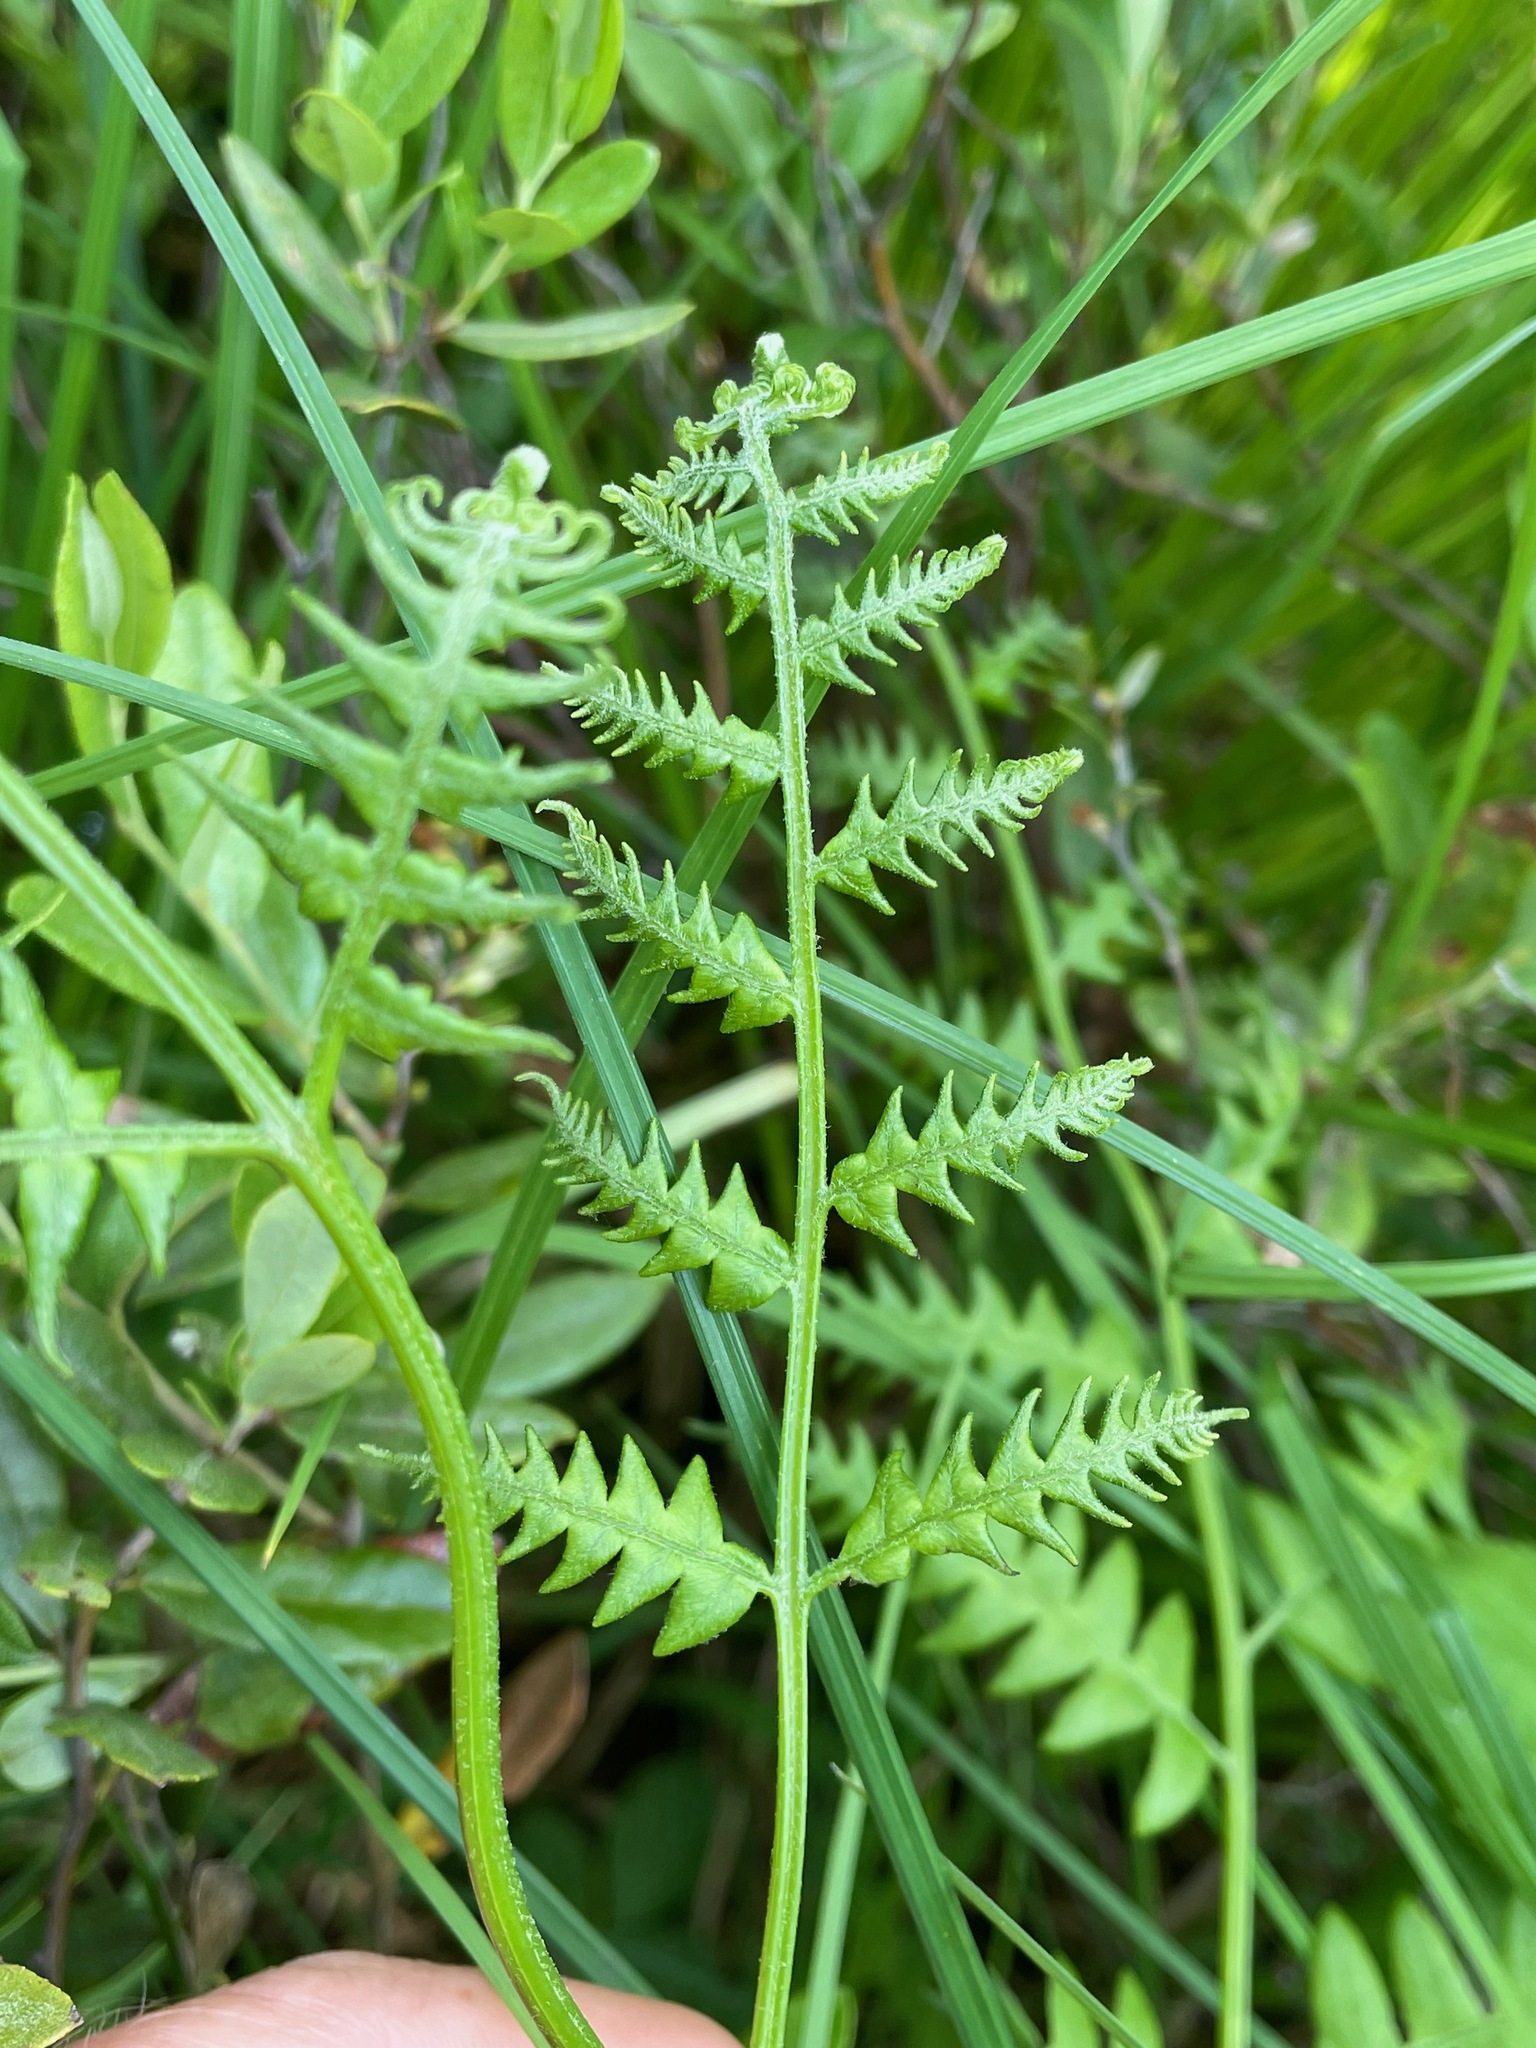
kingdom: Plantae
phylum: Tracheophyta
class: Polypodiopsida
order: Polypodiales
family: Dennstaedtiaceae
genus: Pteridium
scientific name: Pteridium aquilinum
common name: Bracken
